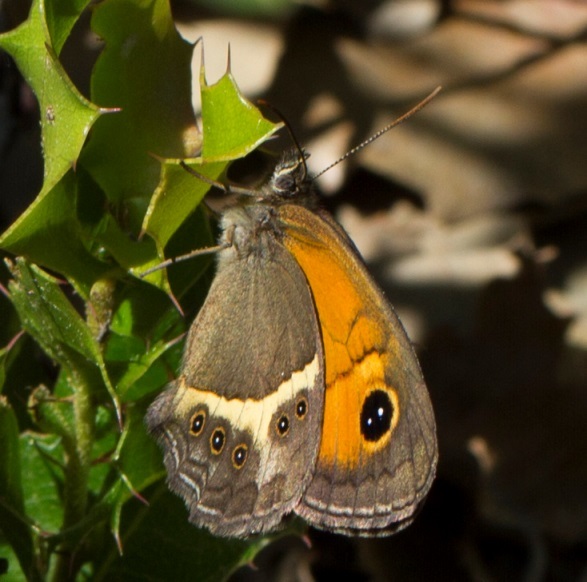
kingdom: Animalia
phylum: Arthropoda
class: Insecta
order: Lepidoptera
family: Nymphalidae
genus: Pyronia
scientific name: Pyronia bathseba
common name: Spanish gatekeeper
